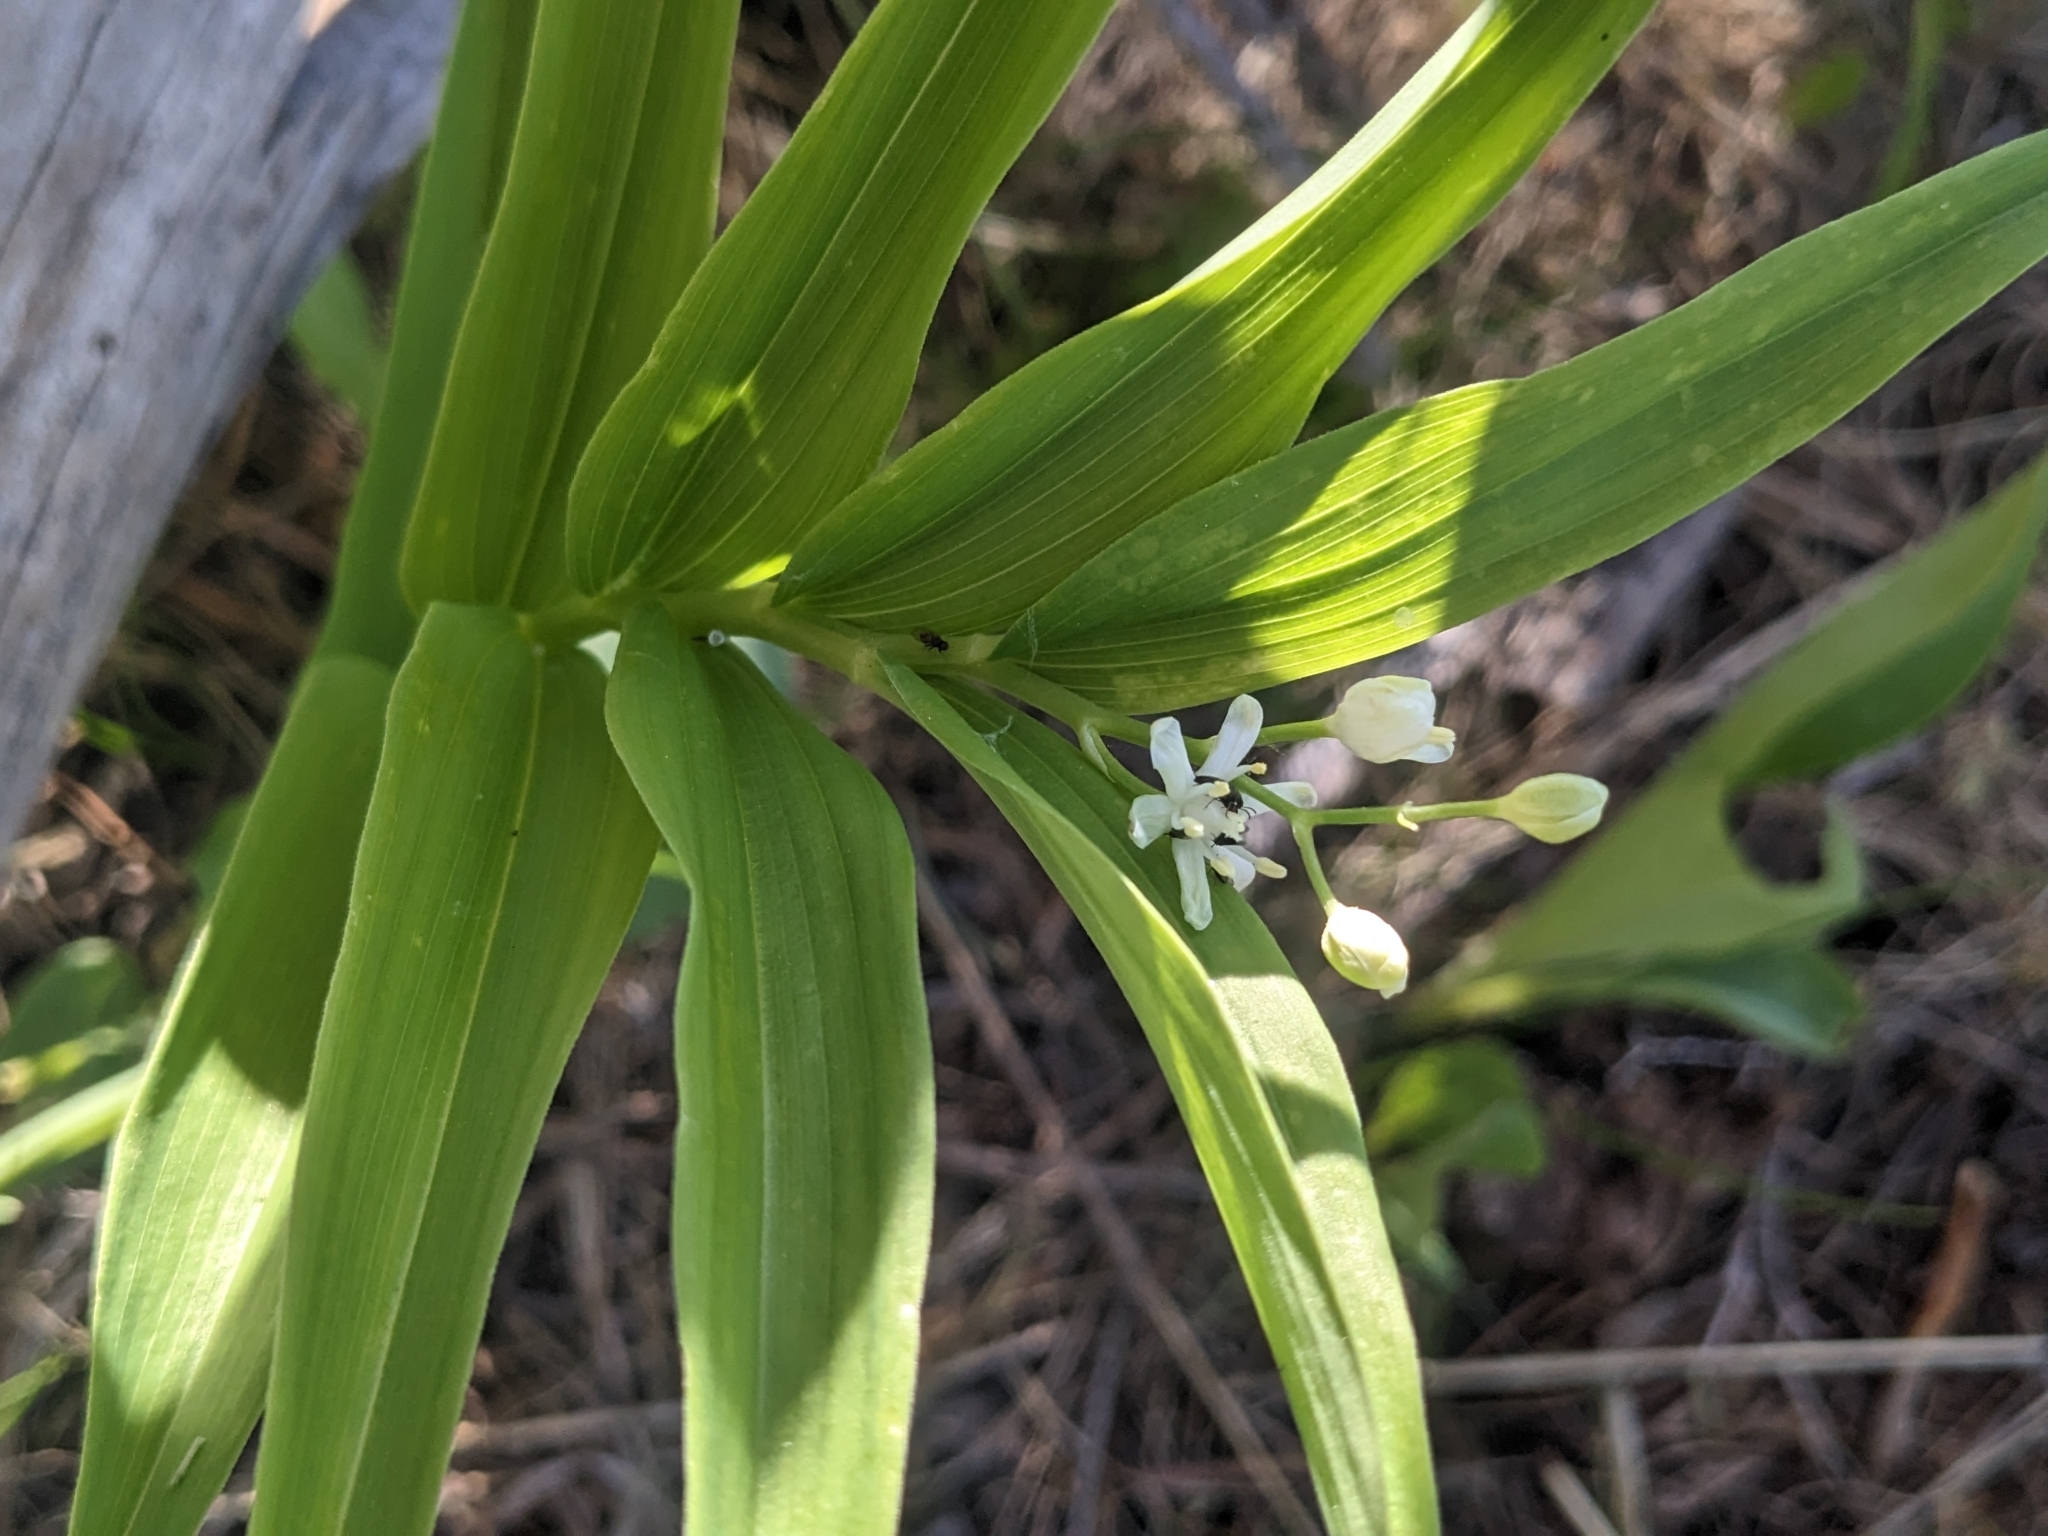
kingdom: Plantae
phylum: Tracheophyta
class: Liliopsida
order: Asparagales
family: Asparagaceae
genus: Maianthemum
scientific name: Maianthemum stellatum
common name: Little false solomon's seal
